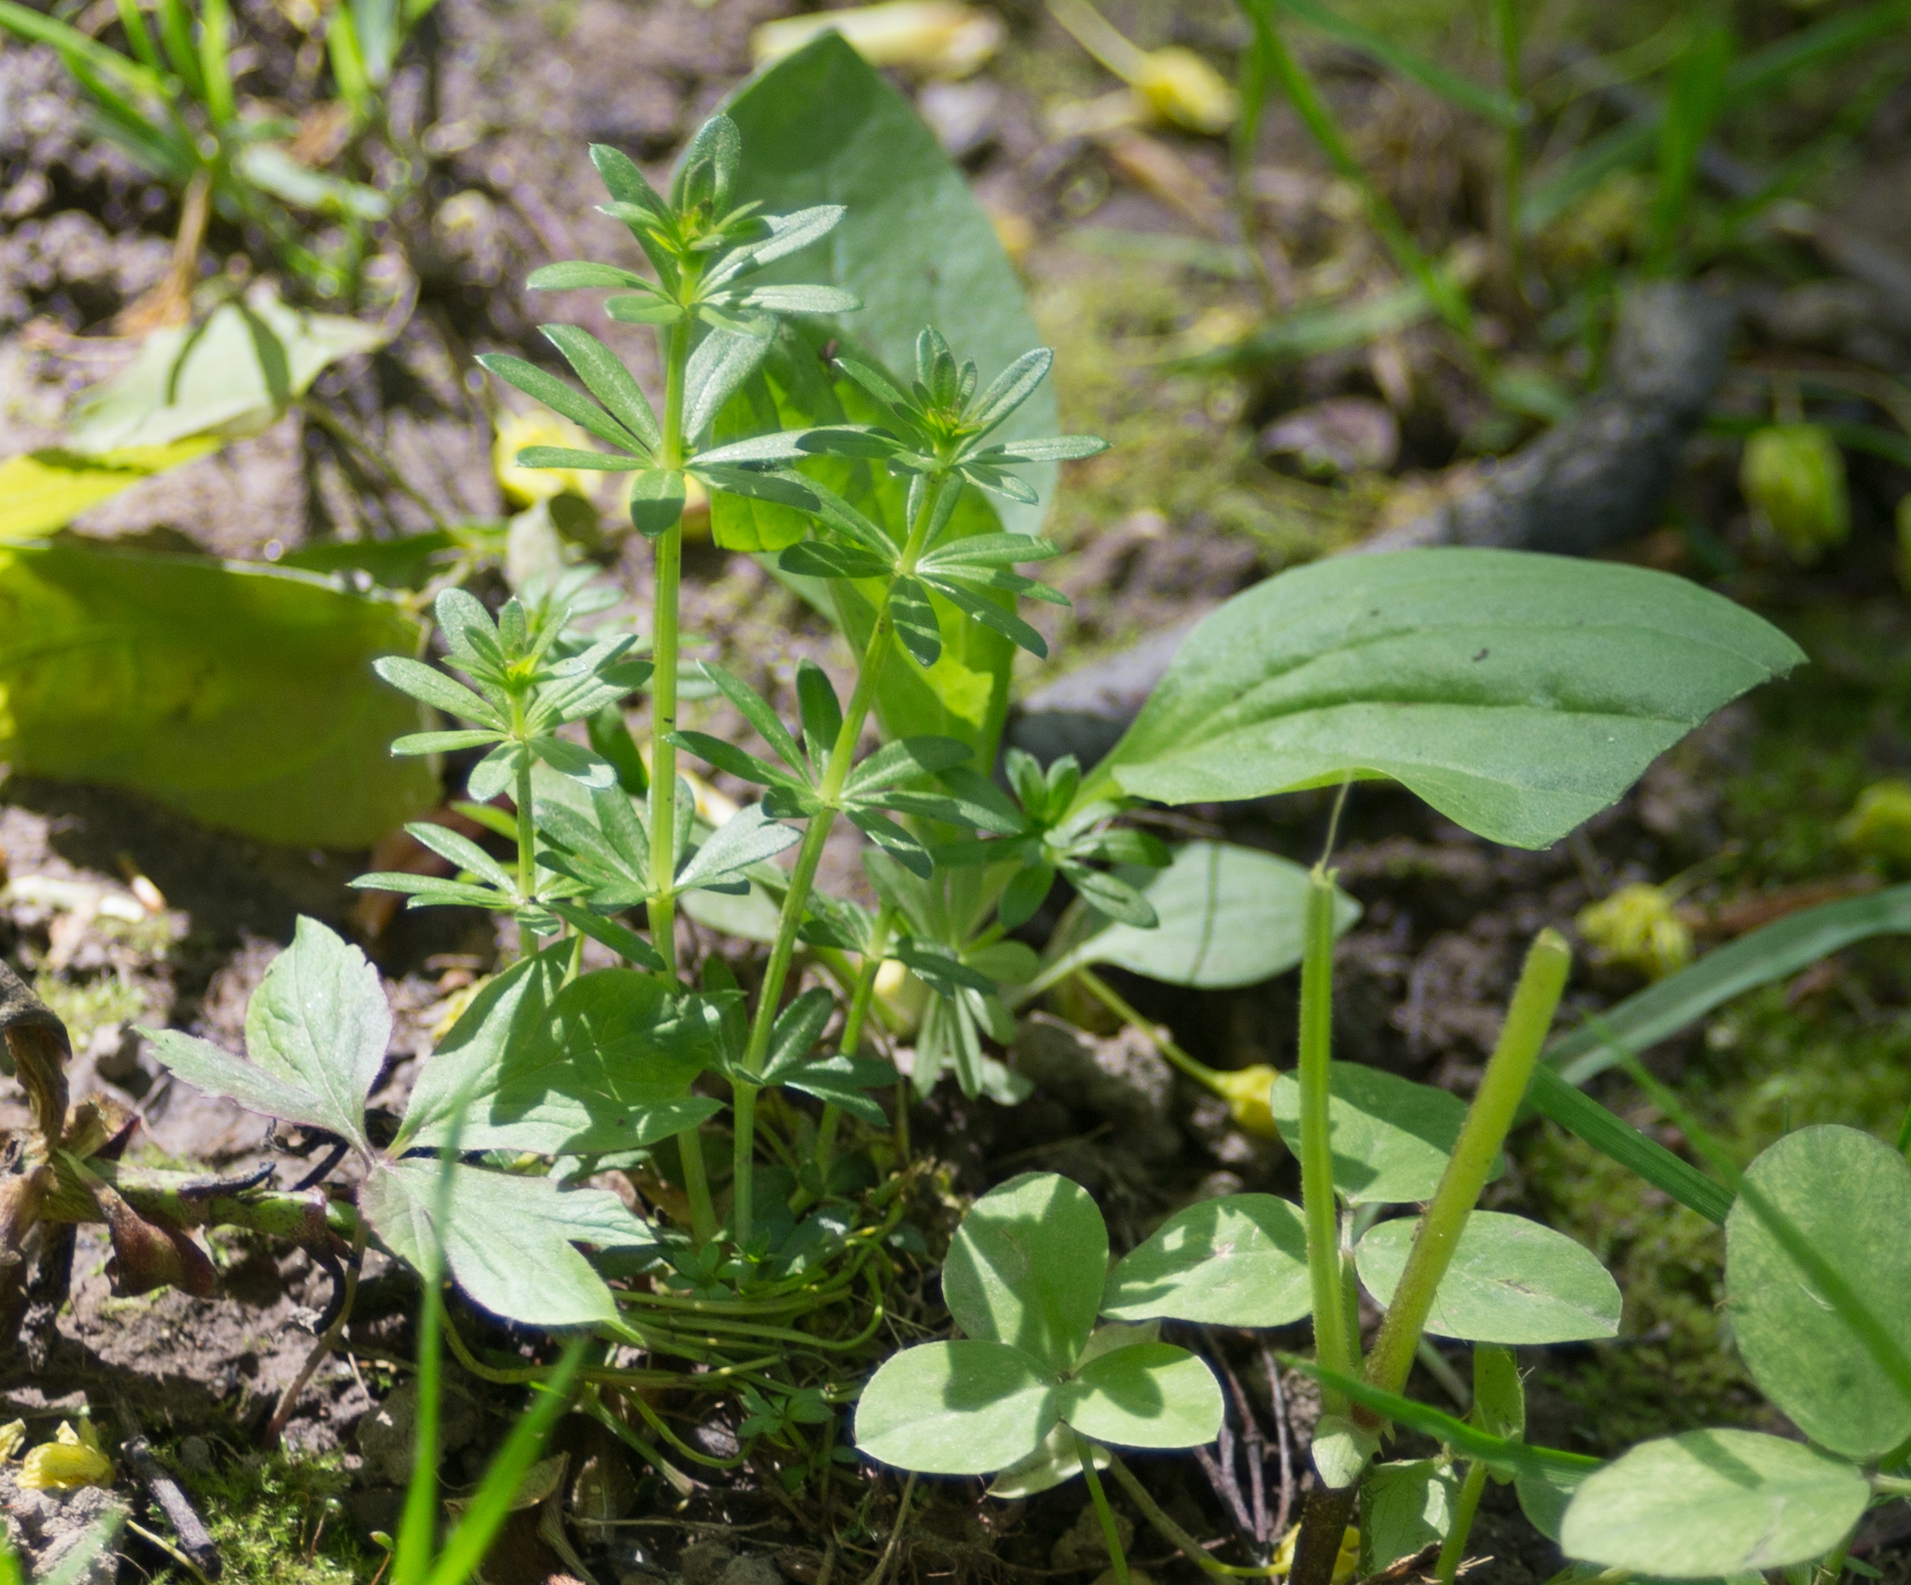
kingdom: Plantae
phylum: Tracheophyta
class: Magnoliopsida
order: Gentianales
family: Rubiaceae
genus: Galium
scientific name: Galium mollugo
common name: Hedge bedstraw
